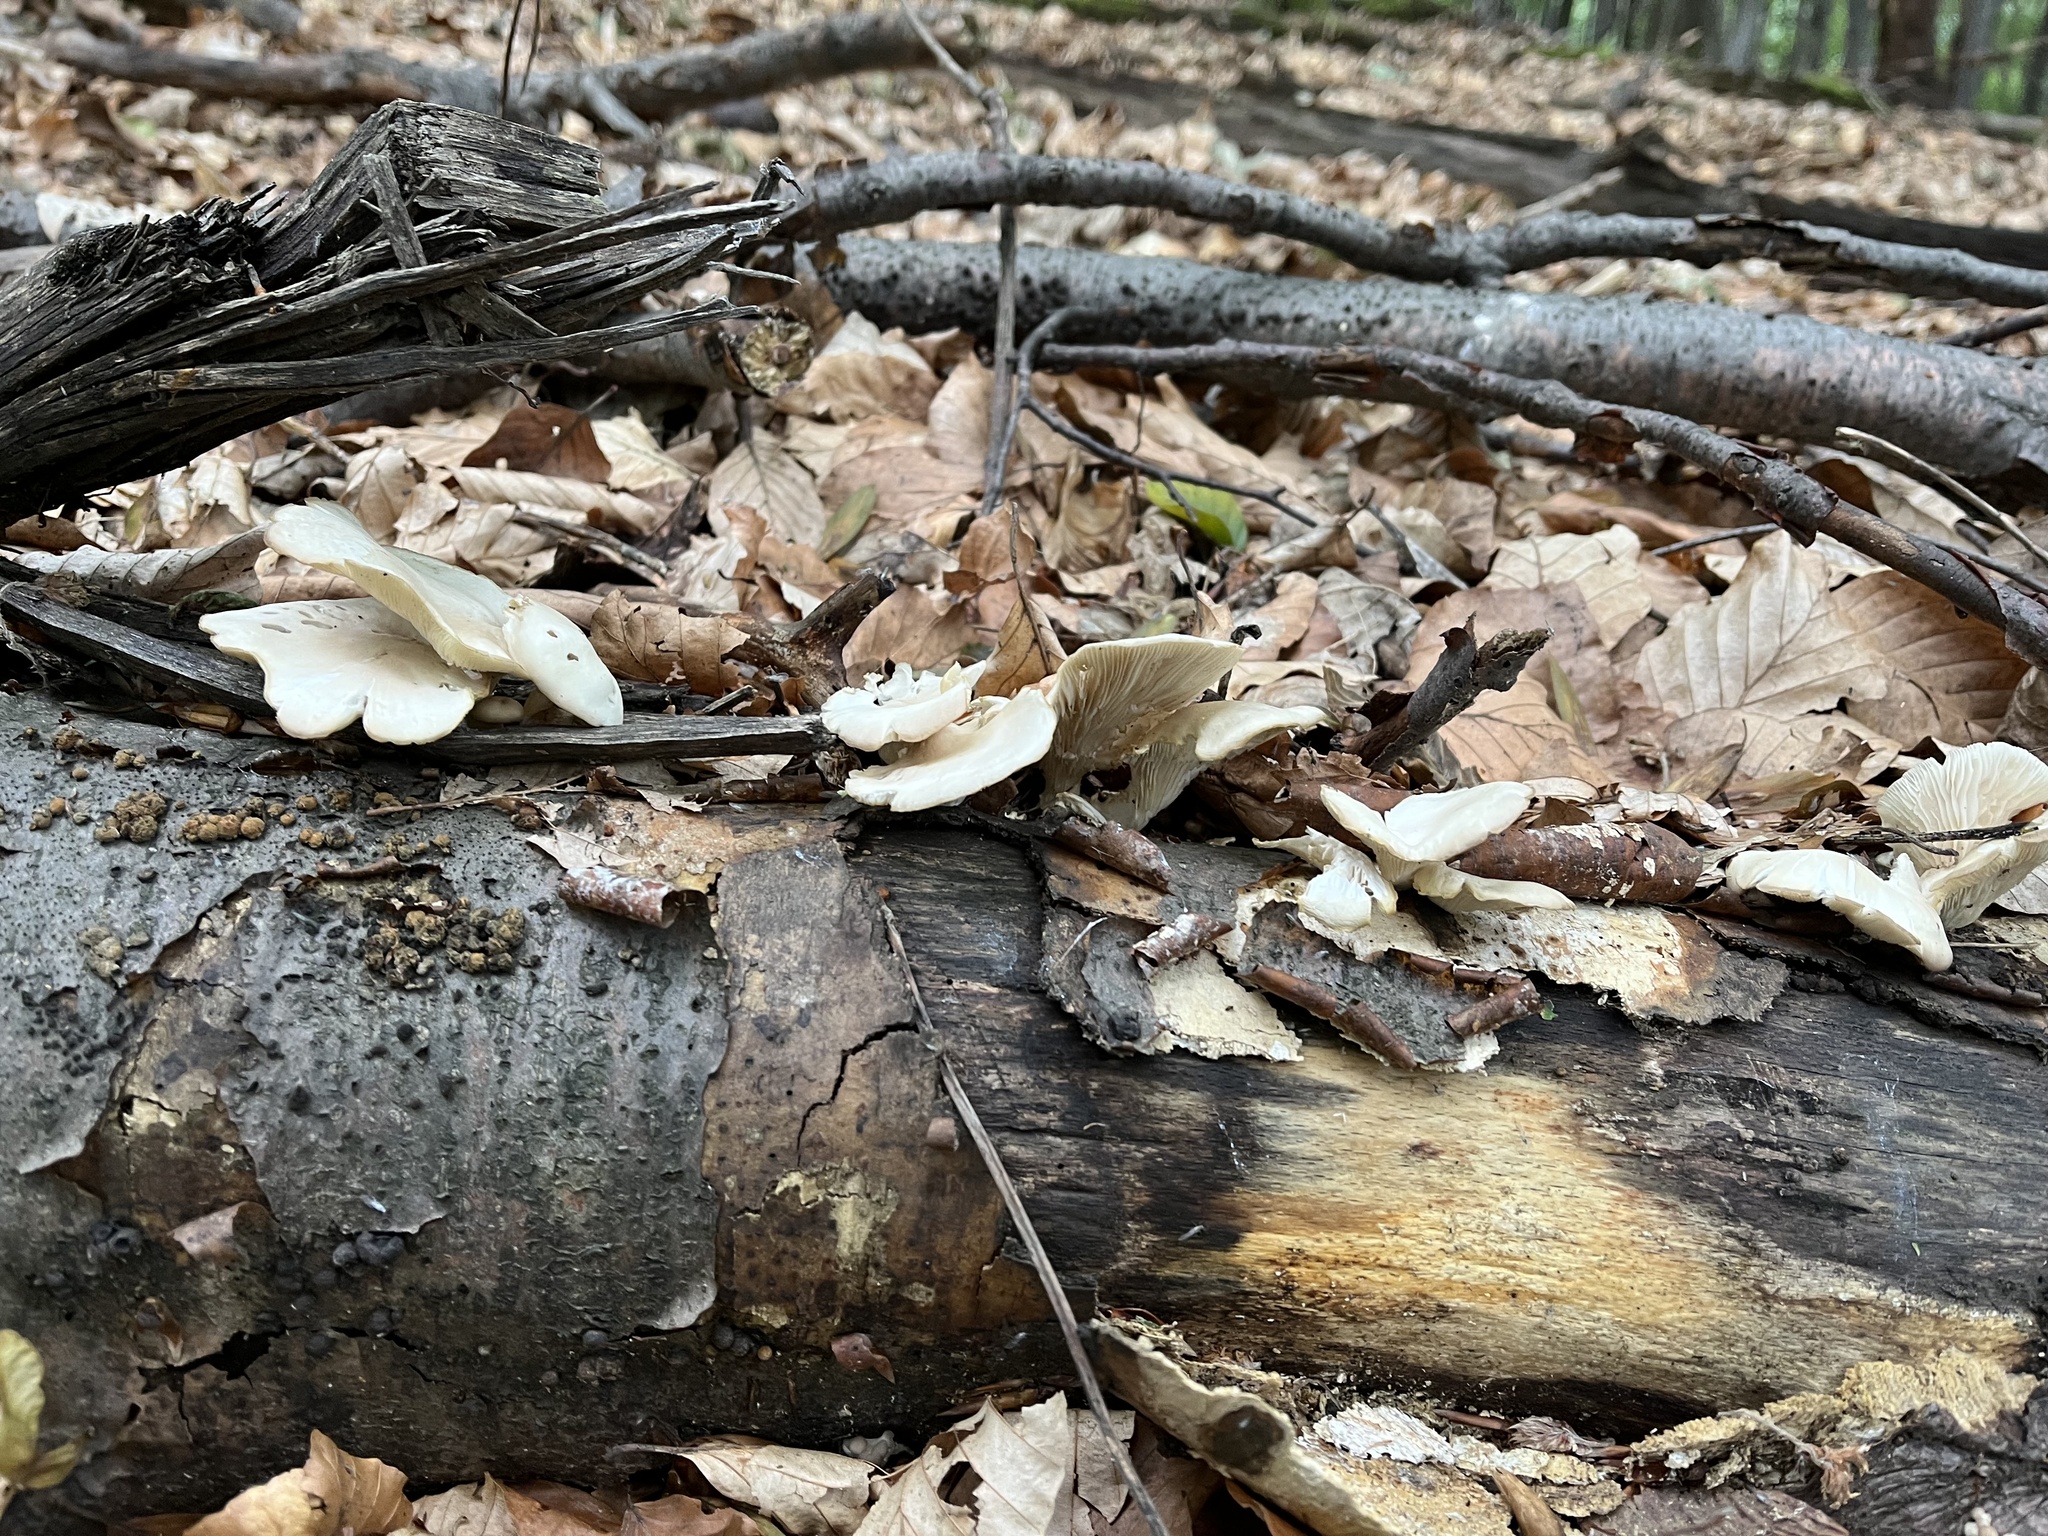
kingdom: Fungi
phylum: Basidiomycota
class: Agaricomycetes
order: Agaricales
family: Pleurotaceae
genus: Pleurotus
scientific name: Pleurotus pulmonarius
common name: Pale oyster
